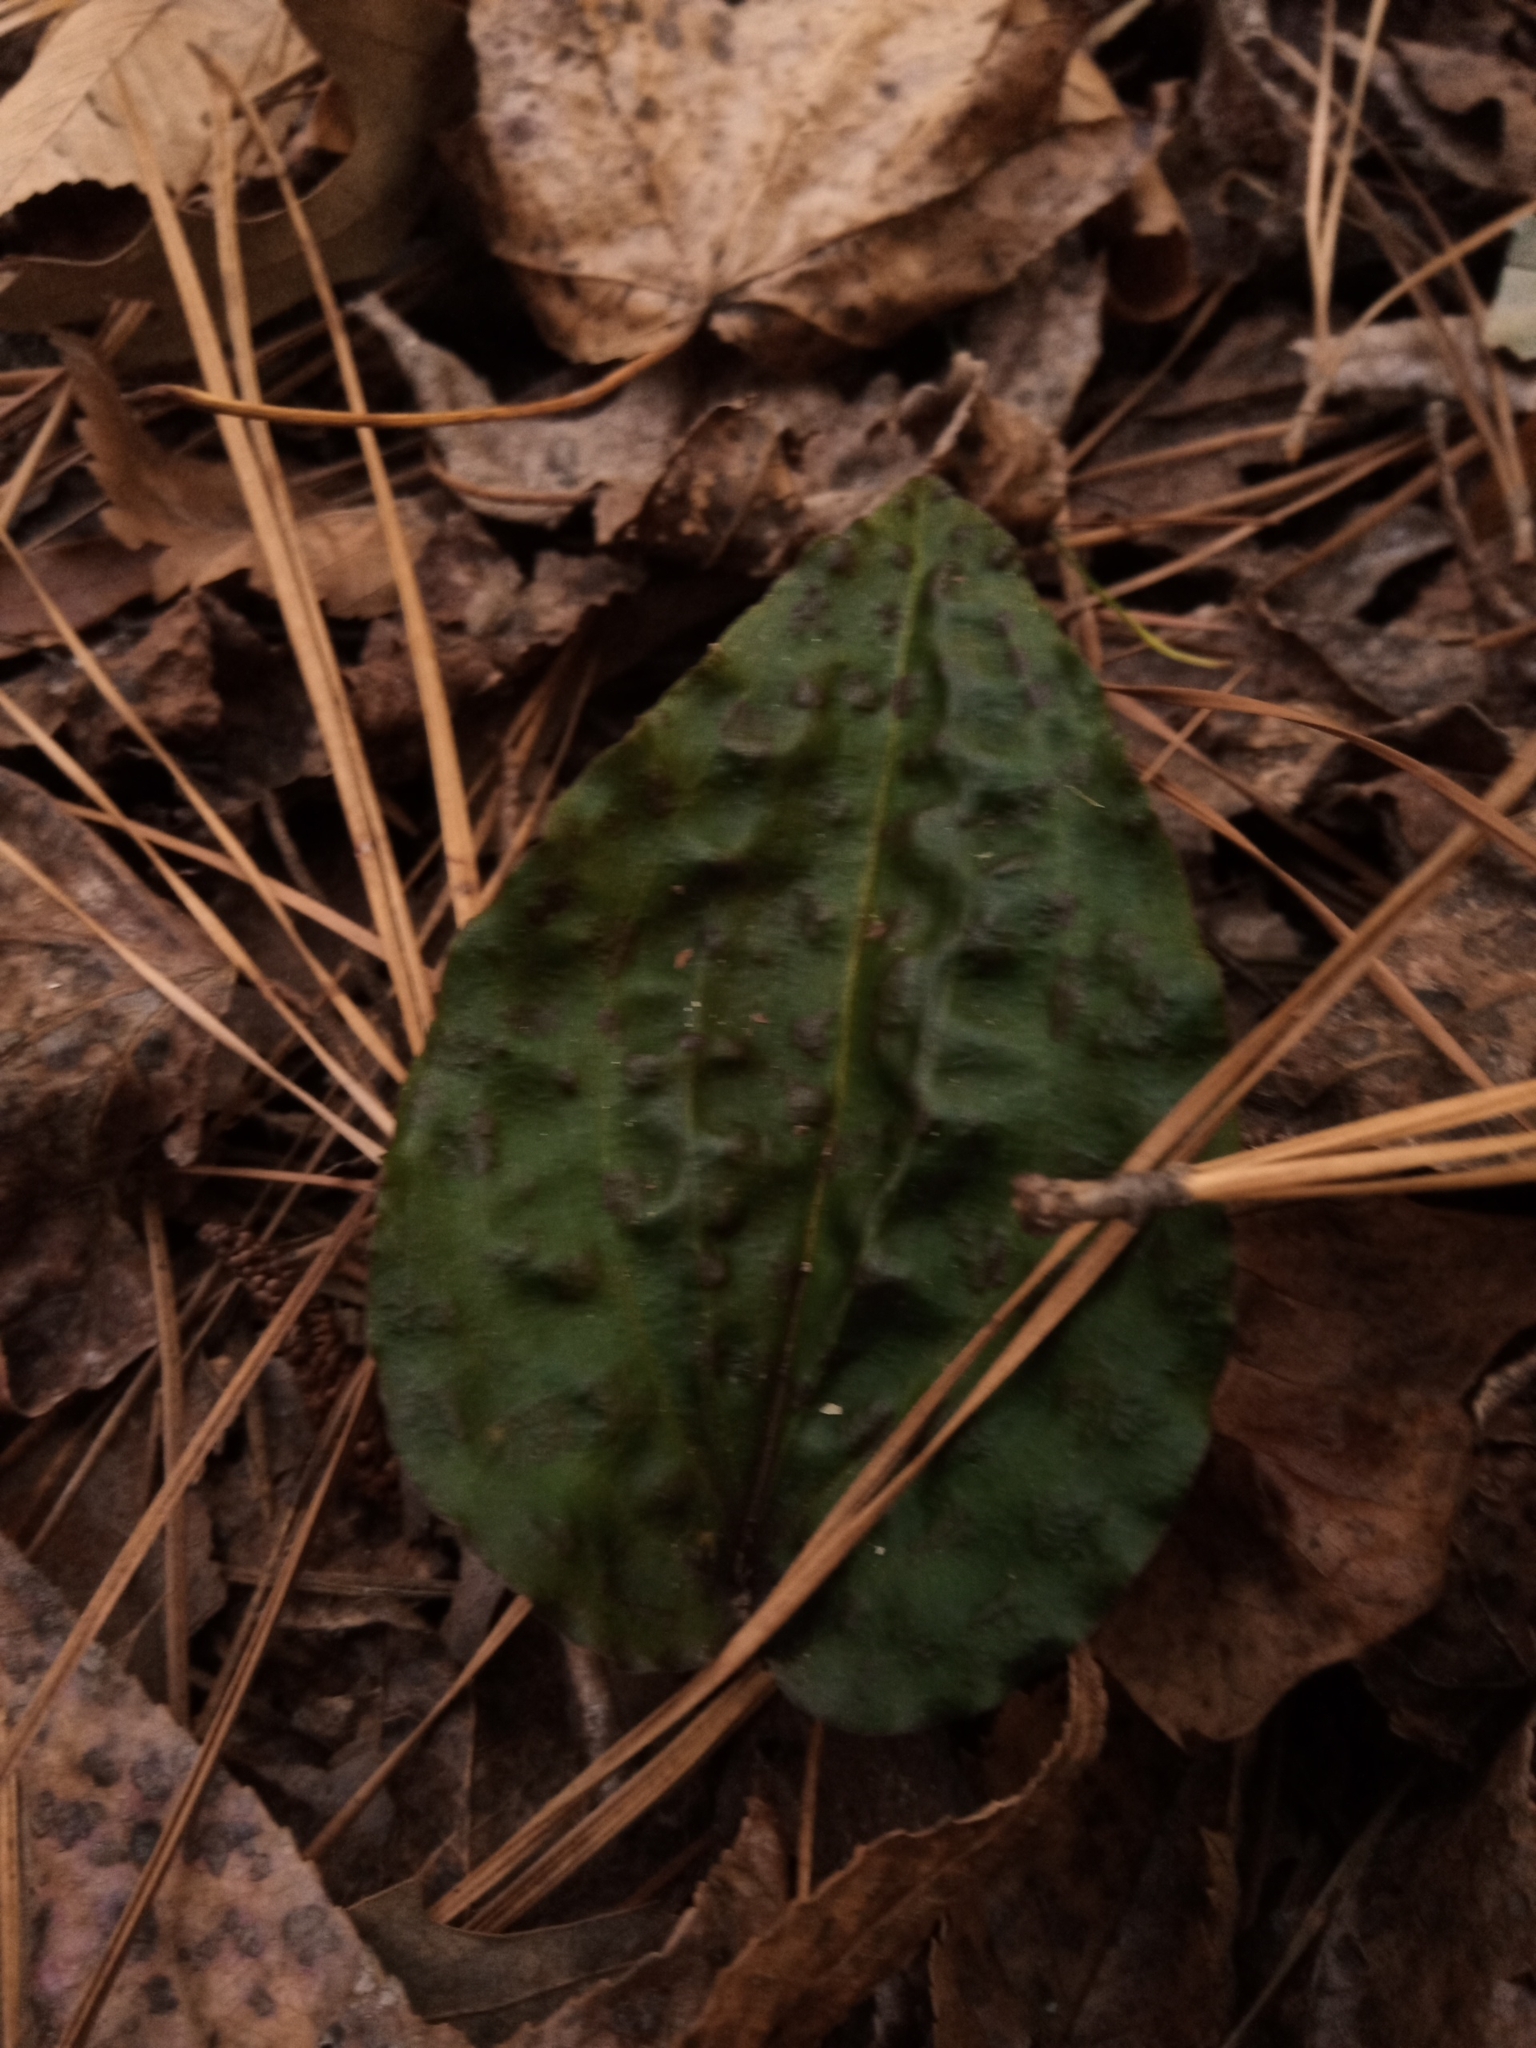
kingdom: Plantae
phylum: Tracheophyta
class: Liliopsida
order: Asparagales
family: Orchidaceae
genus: Tipularia
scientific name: Tipularia discolor
